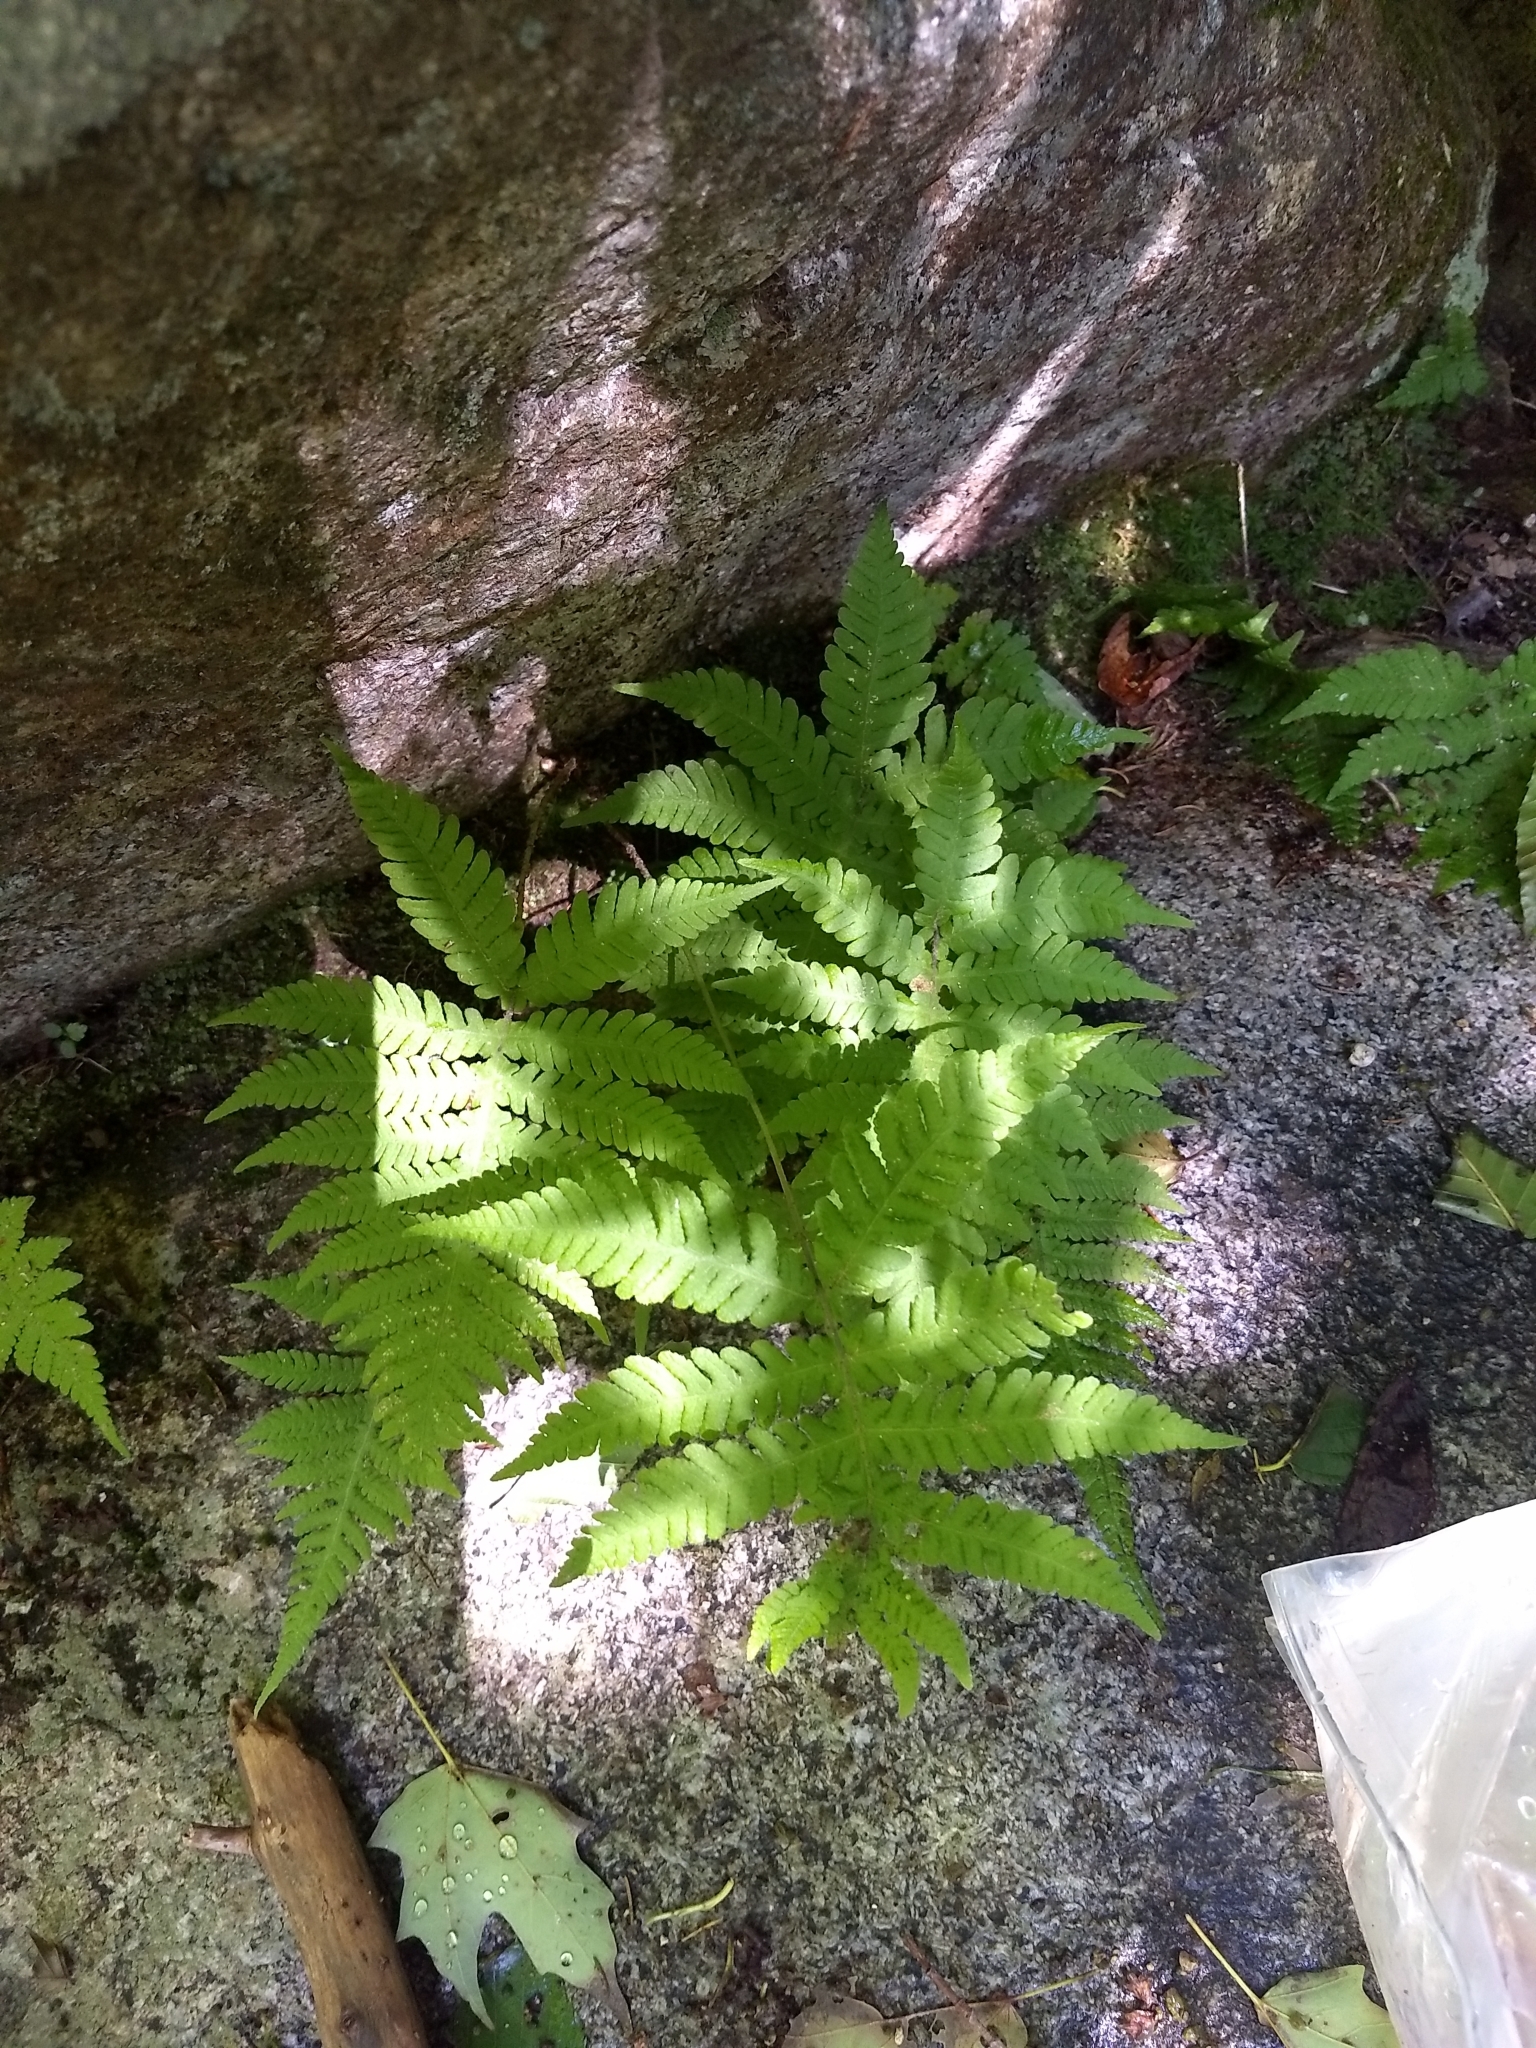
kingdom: Plantae
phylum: Tracheophyta
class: Polypodiopsida
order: Polypodiales
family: Thelypteridaceae
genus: Phegopteris
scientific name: Phegopteris connectilis
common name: Beech fern
